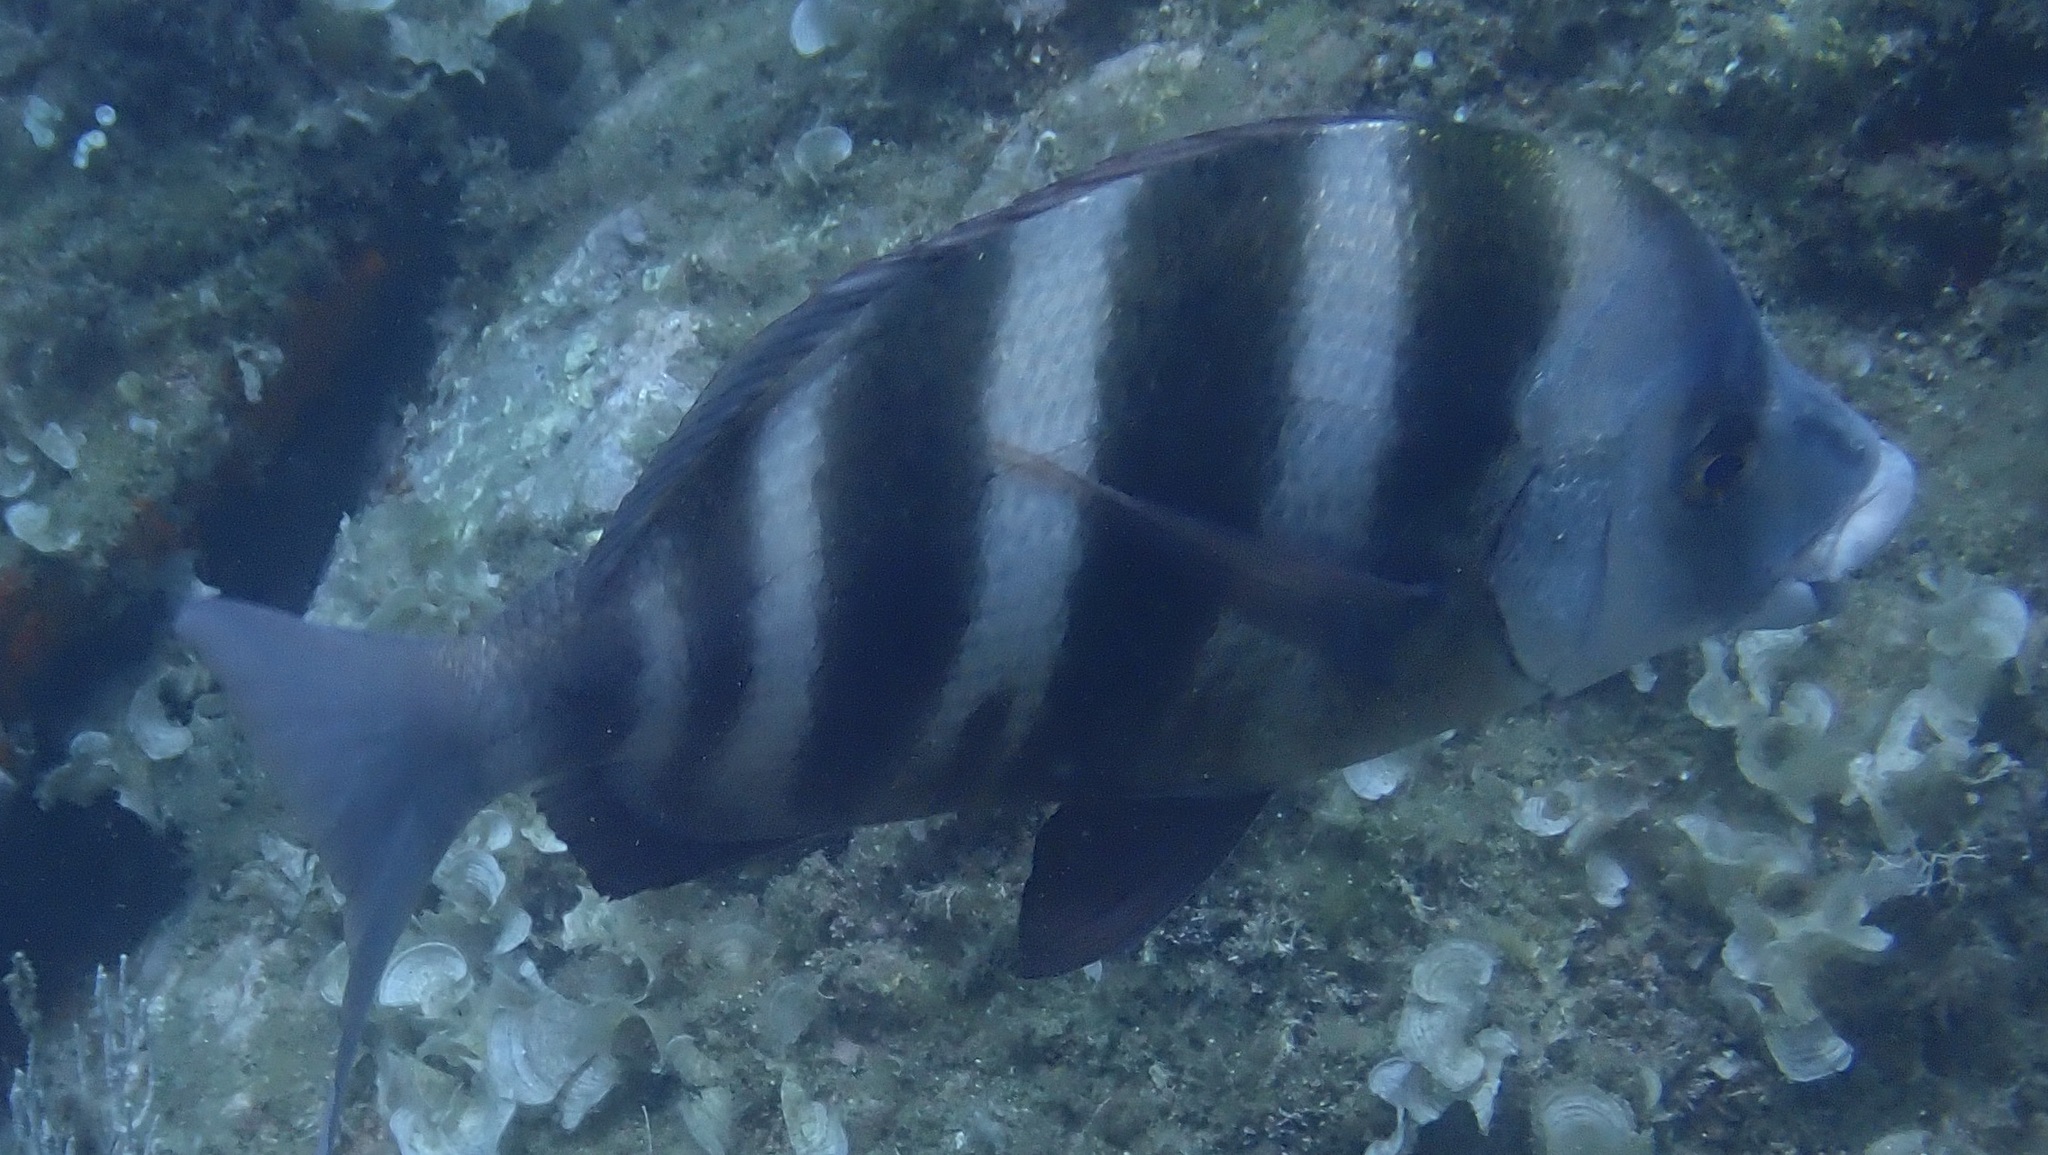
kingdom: Animalia
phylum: Chordata
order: Perciformes
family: Sparidae
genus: Diplodus
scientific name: Diplodus cervinus
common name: Oman porgy
